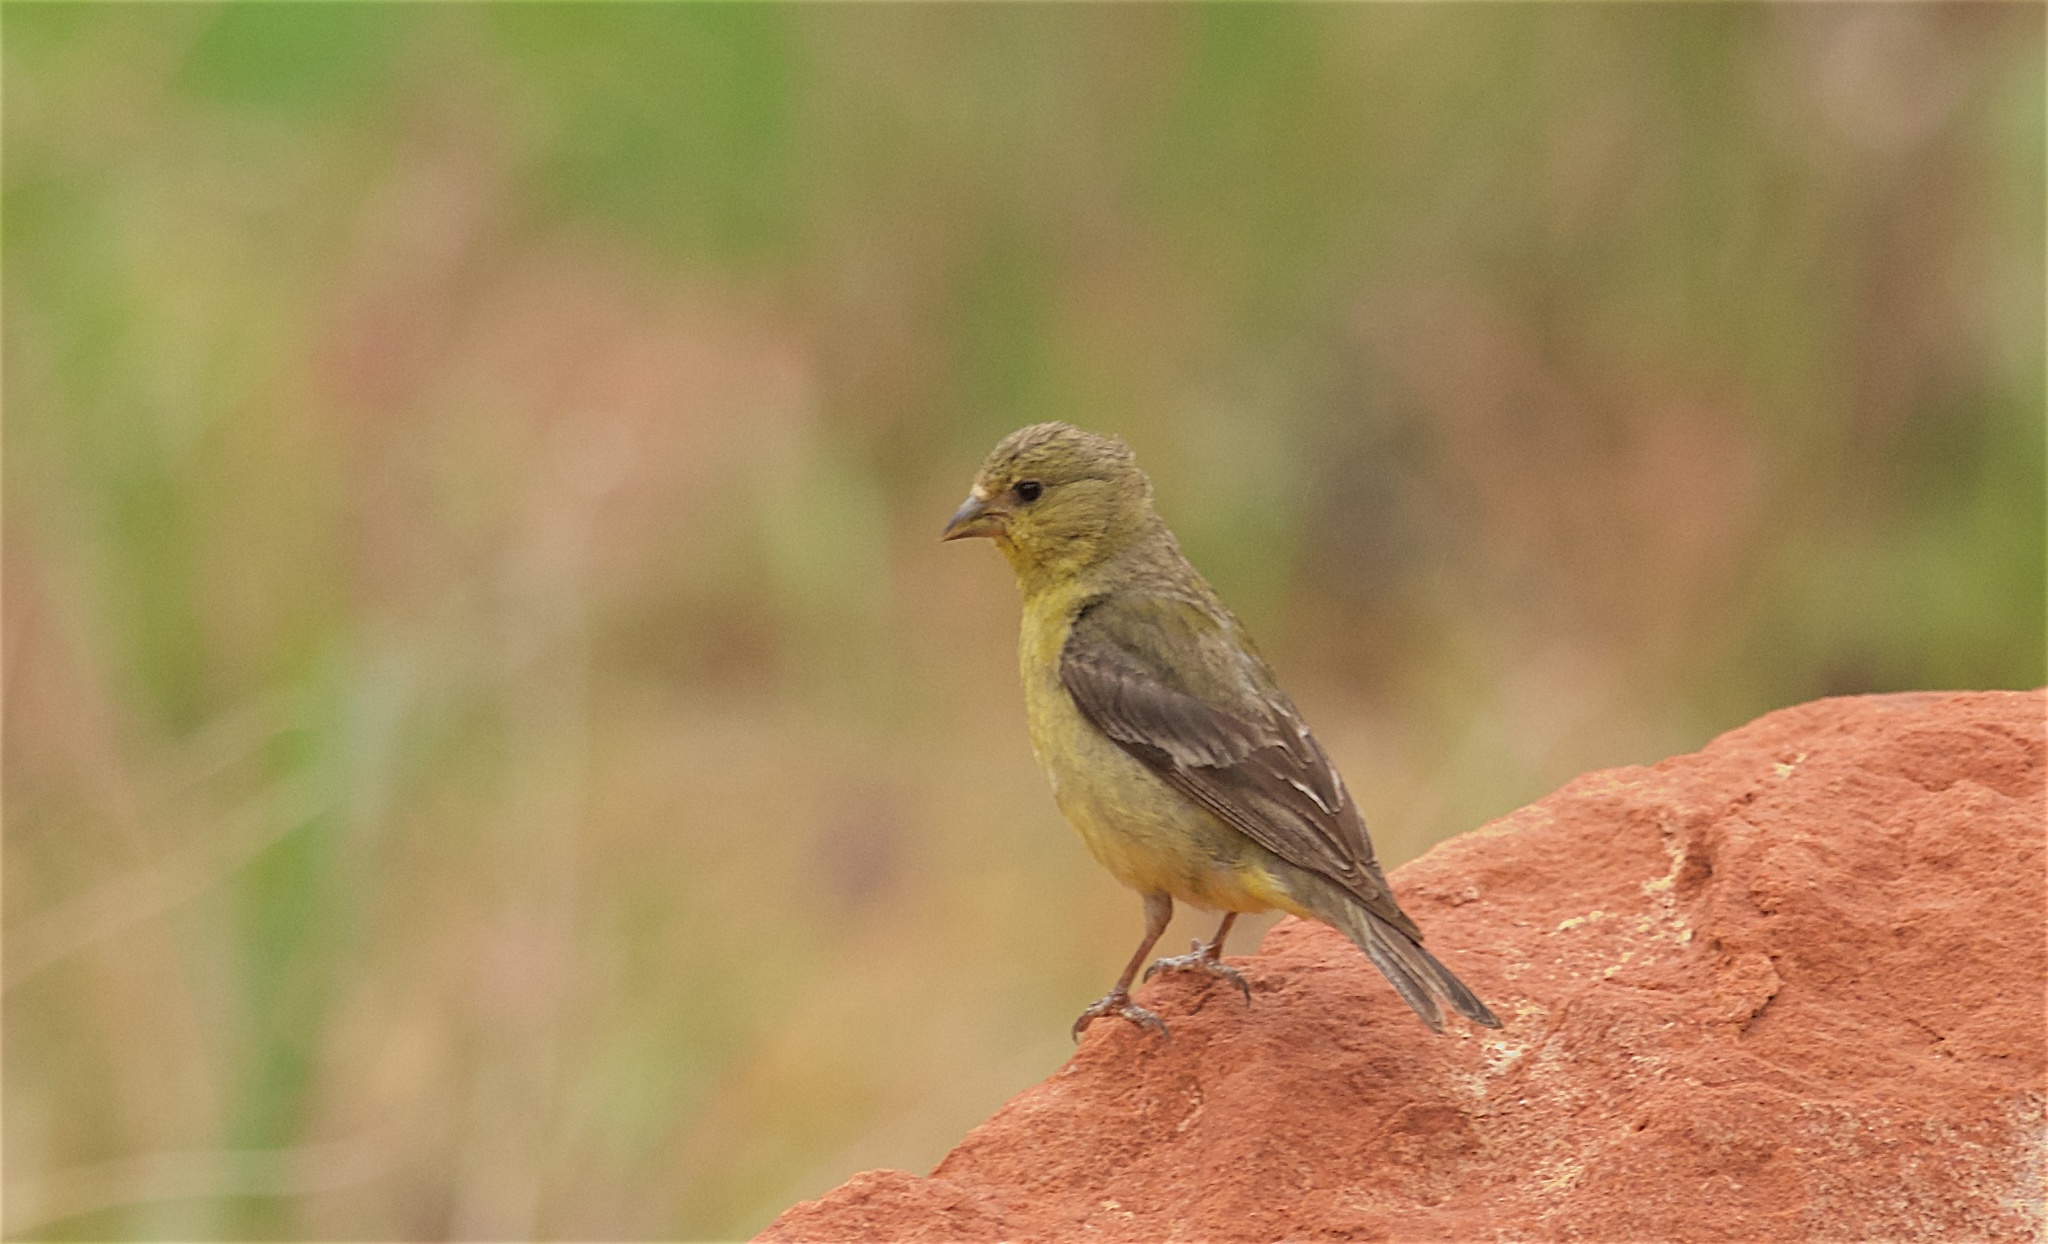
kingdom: Animalia
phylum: Chordata
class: Aves
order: Passeriformes
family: Fringillidae
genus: Spinus
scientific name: Spinus psaltria
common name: Lesser goldfinch
